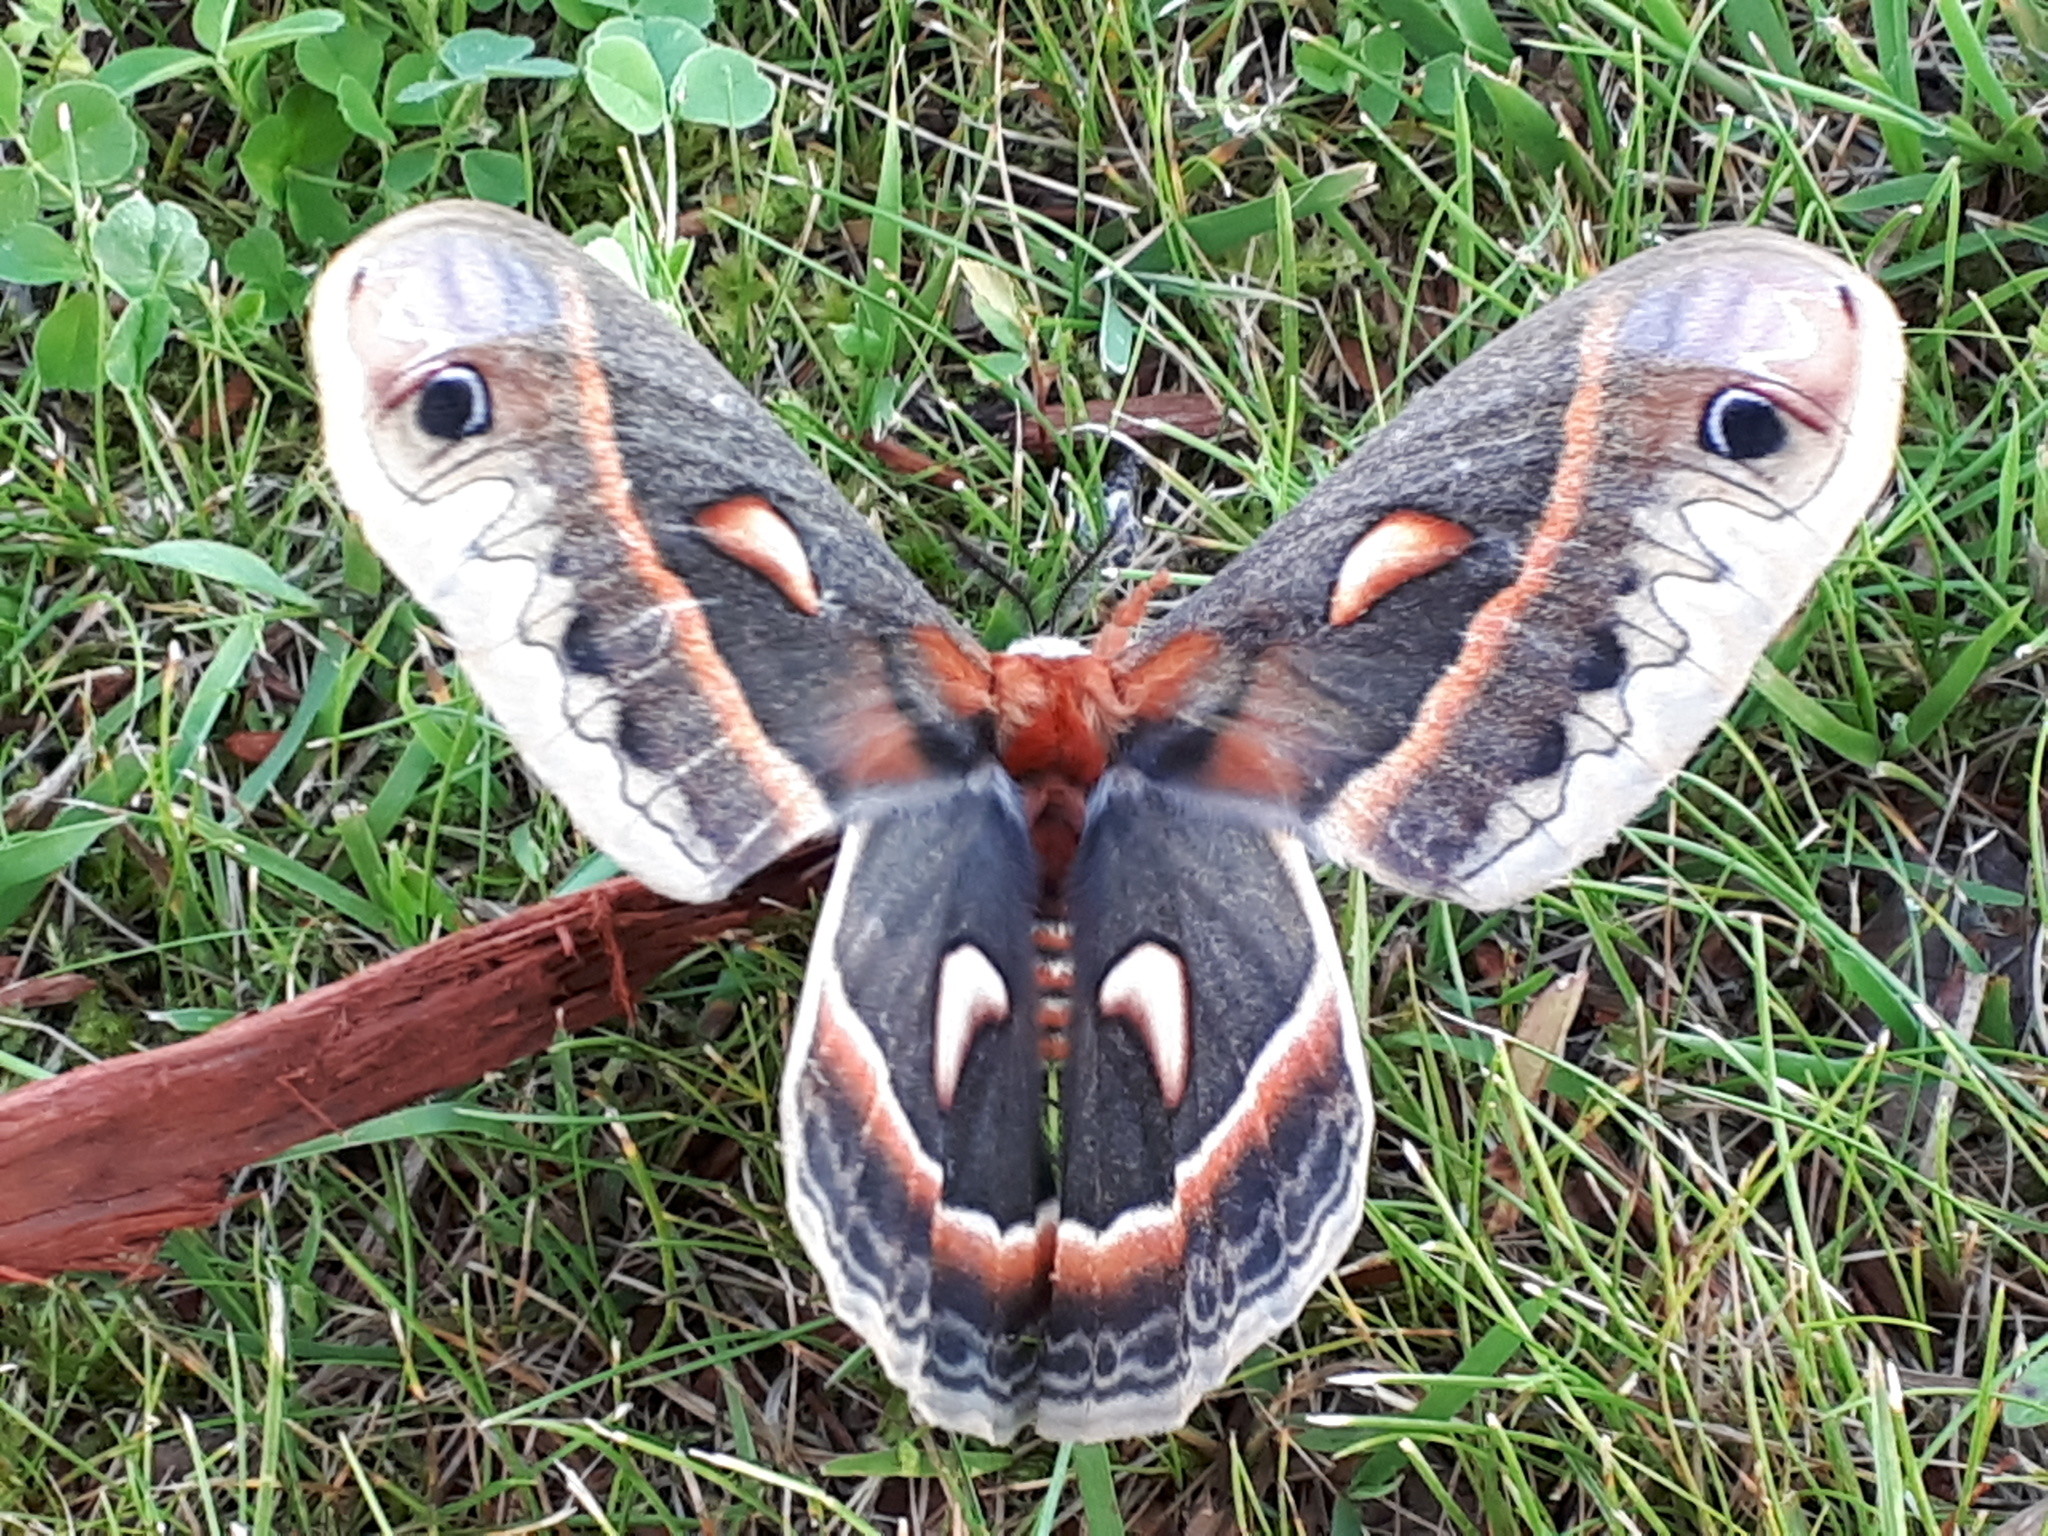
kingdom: Animalia
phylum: Arthropoda
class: Insecta
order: Lepidoptera
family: Saturniidae
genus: Hyalophora
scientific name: Hyalophora cecropia
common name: Cecropia silkmoth
